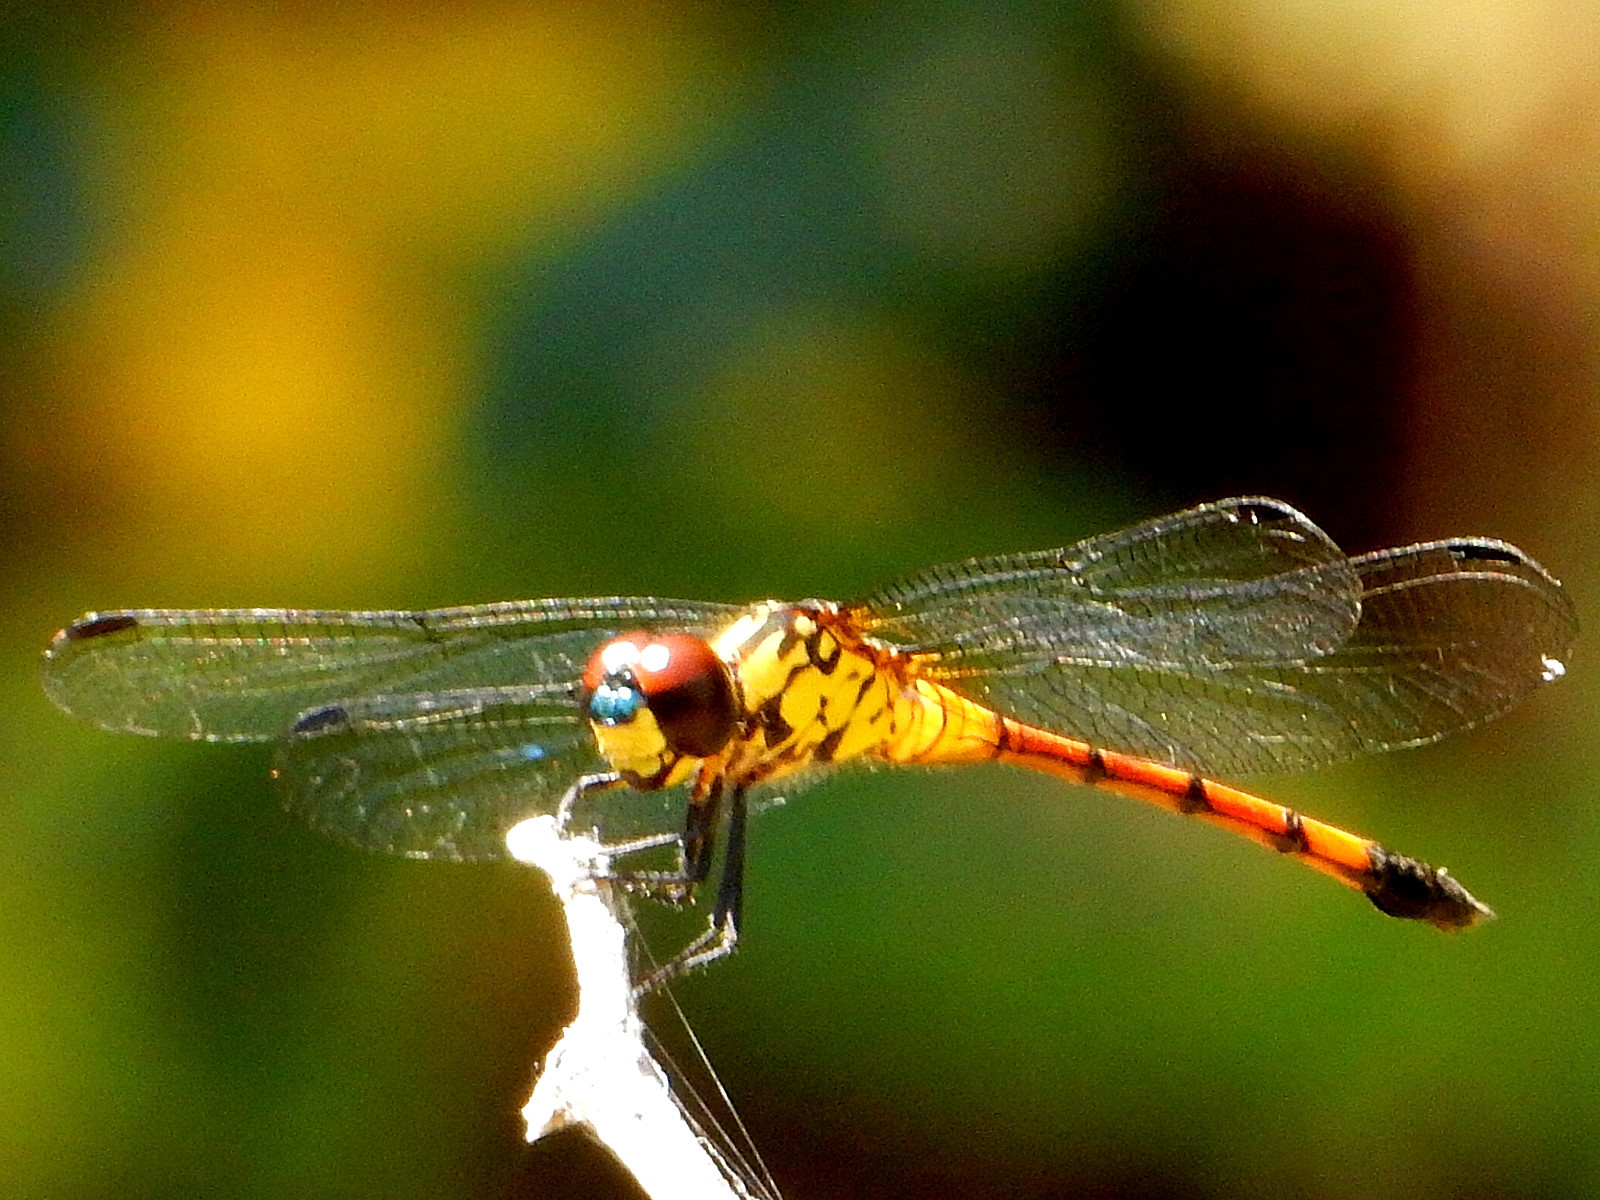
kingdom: Animalia
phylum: Arthropoda
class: Insecta
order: Odonata
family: Libellulidae
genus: Agrionoptera
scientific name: Agrionoptera insignis
